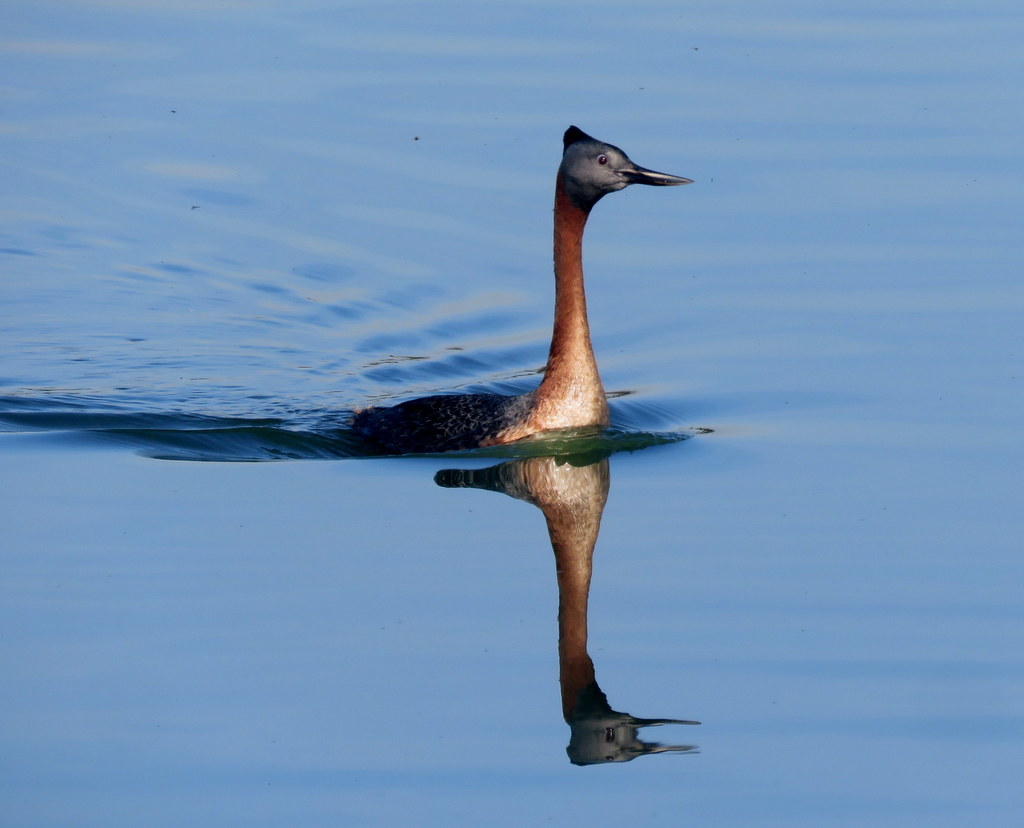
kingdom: Animalia
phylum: Chordata
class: Aves
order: Podicipediformes
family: Podicipedidae
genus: Podiceps
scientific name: Podiceps major
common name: Great grebe
